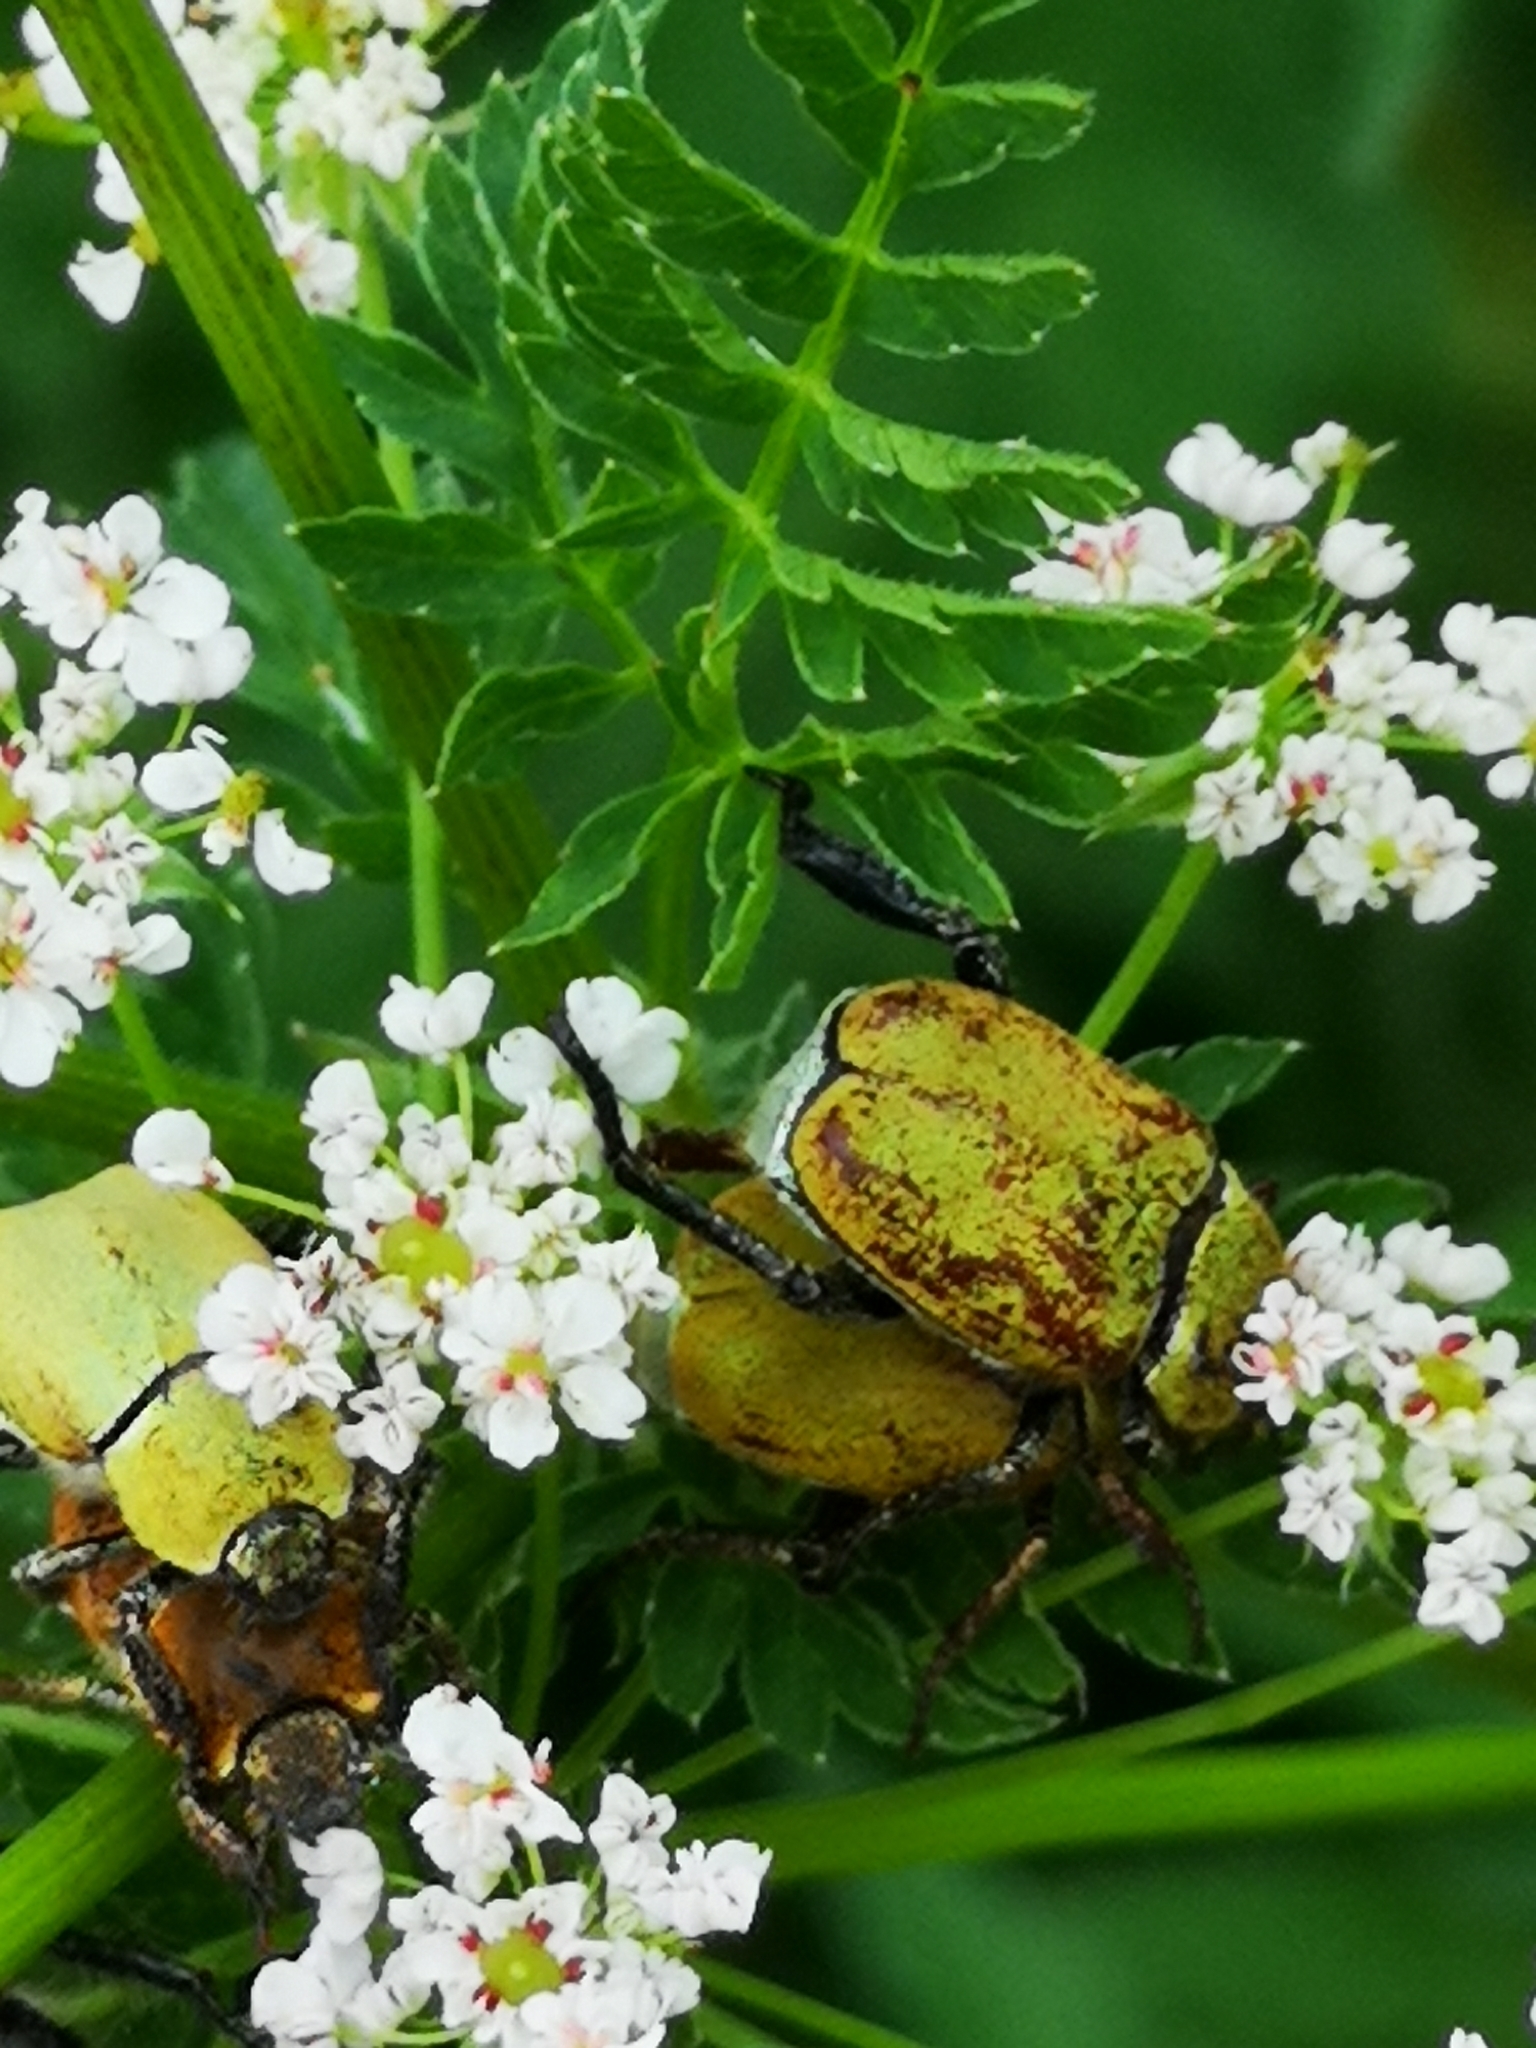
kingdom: Animalia
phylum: Arthropoda
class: Insecta
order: Coleoptera
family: Scarabaeidae
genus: Hoplia
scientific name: Hoplia argentea
